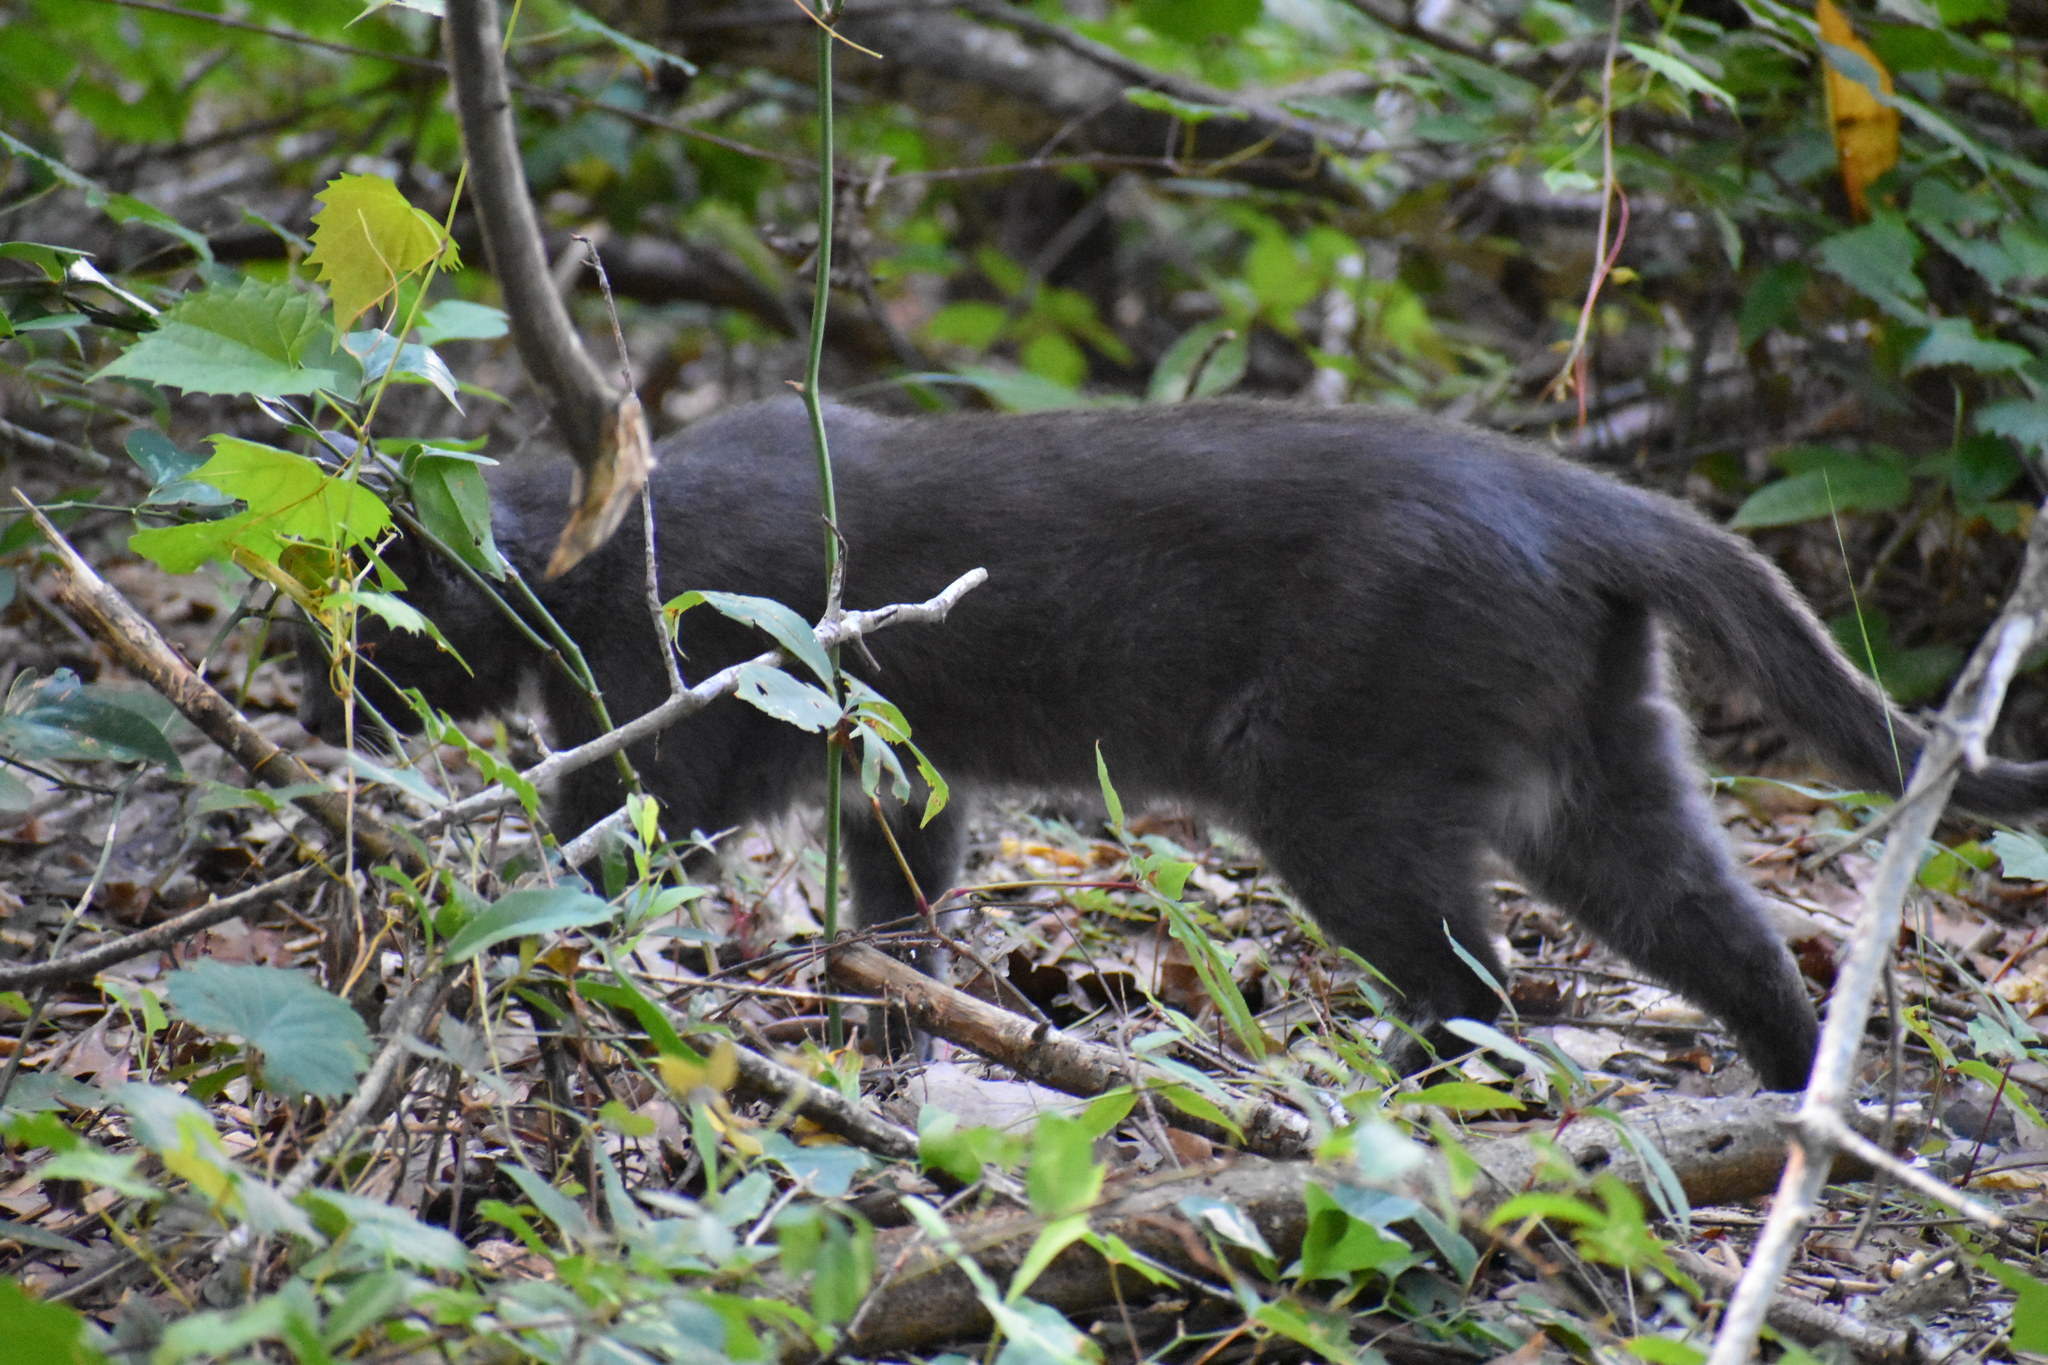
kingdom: Animalia
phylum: Chordata
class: Mammalia
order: Carnivora
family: Felidae
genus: Felis
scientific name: Felis catus
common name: Domestic cat
